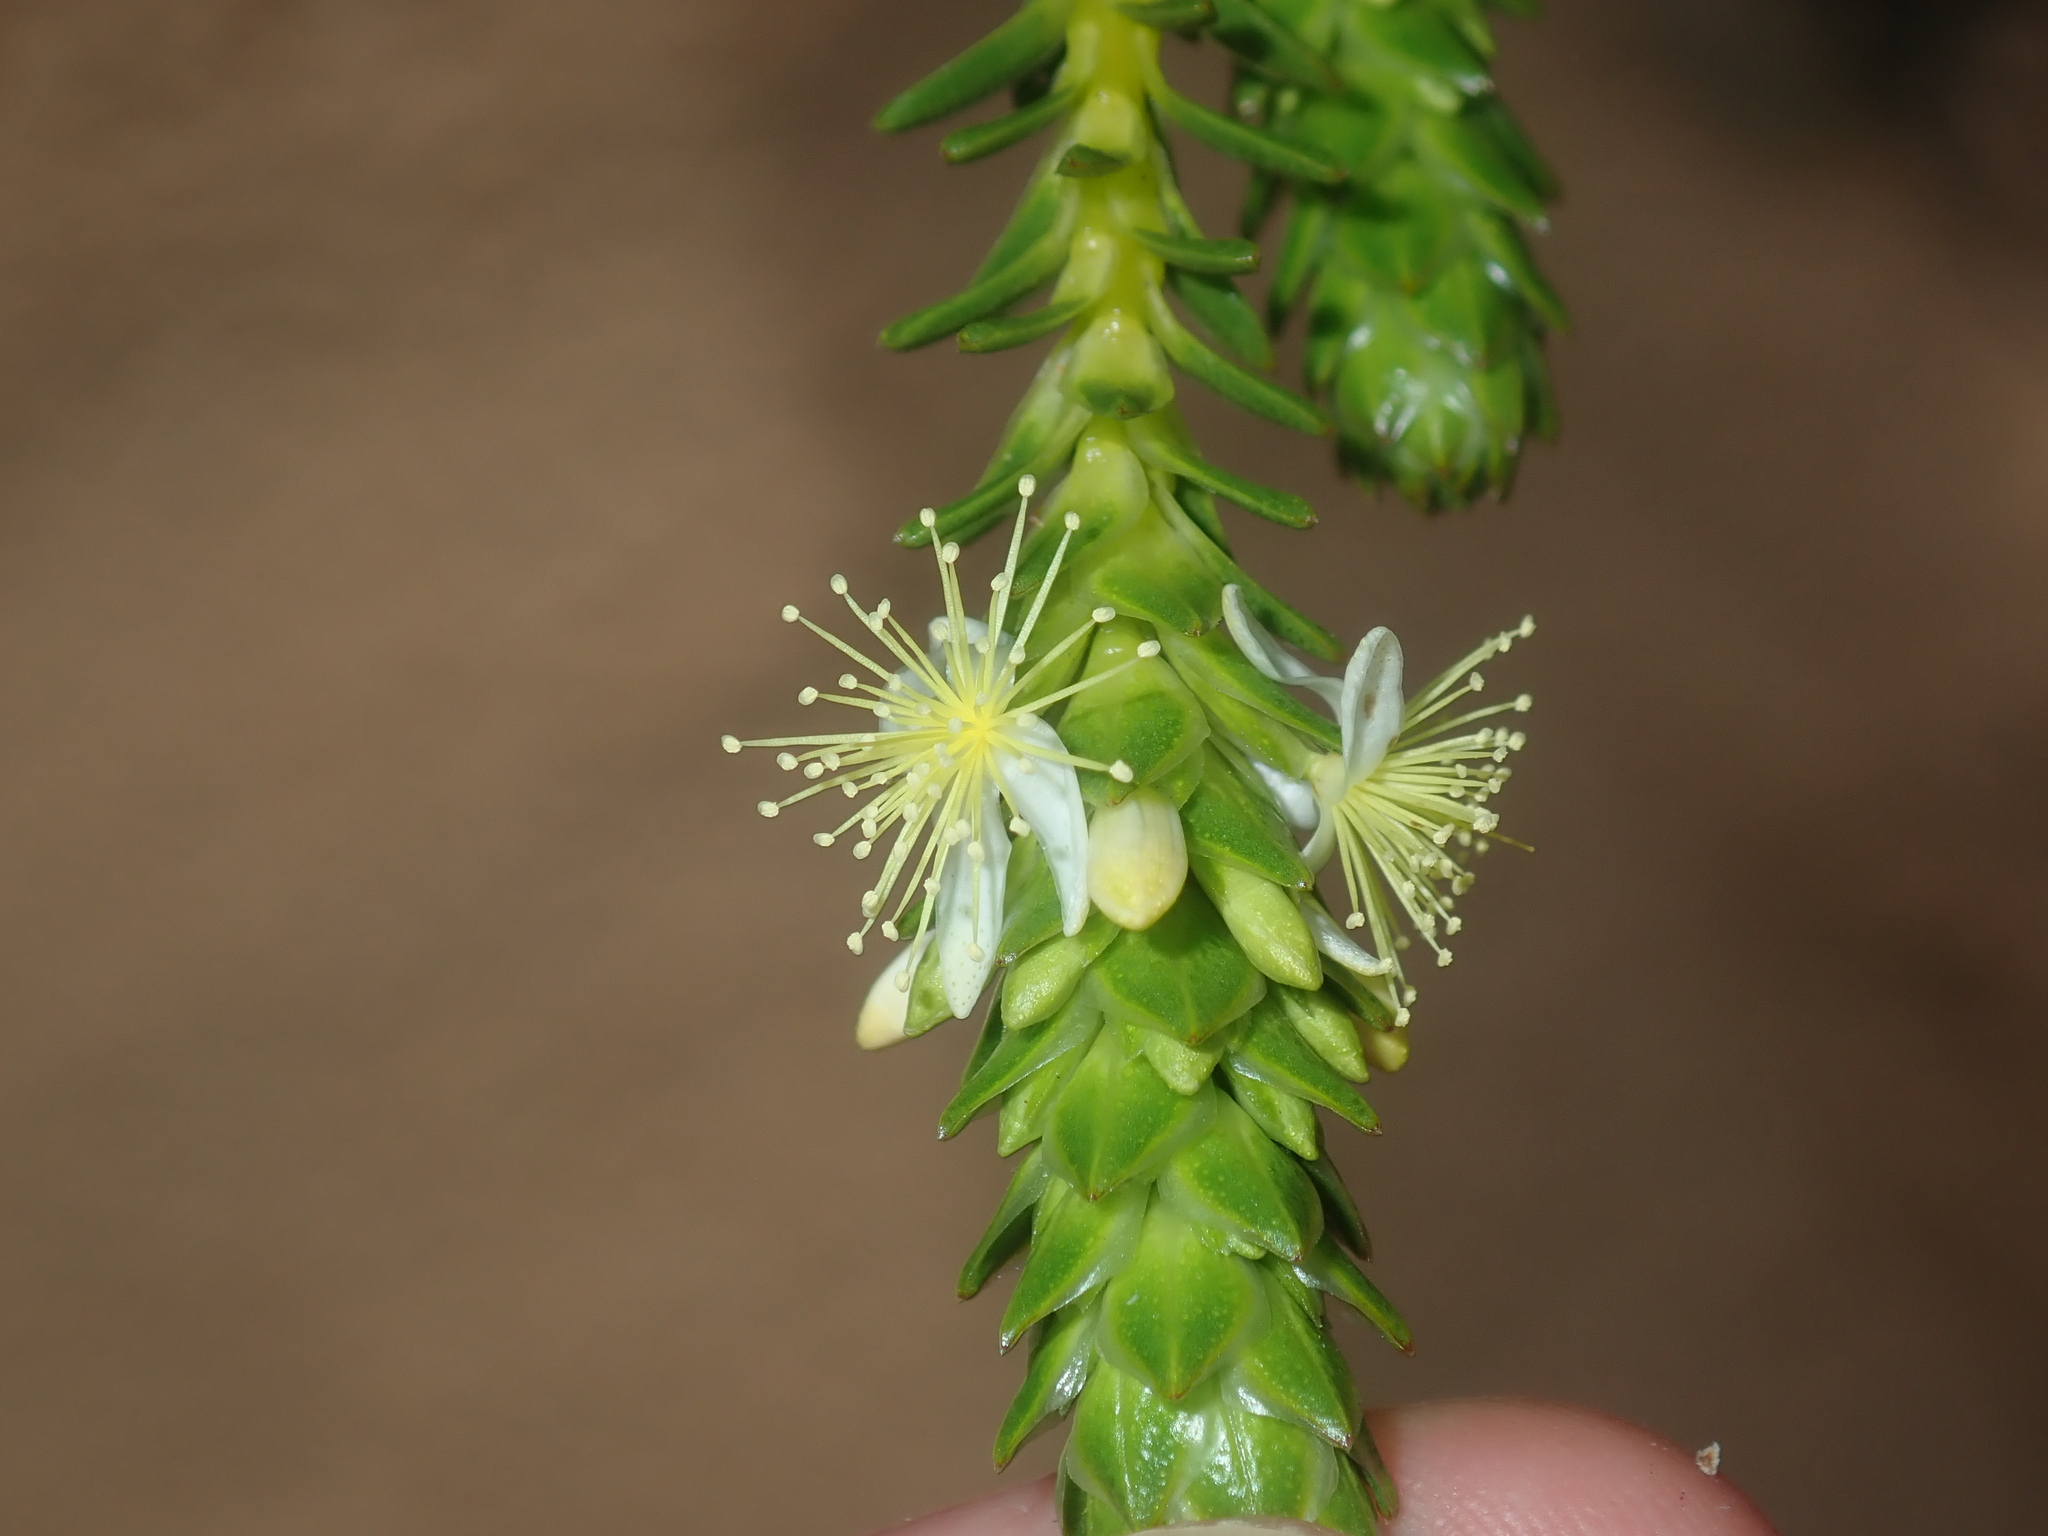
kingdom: Plantae
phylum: Tracheophyta
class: Magnoliopsida
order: Myrtales
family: Myrtaceae
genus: Calytrix
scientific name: Calytrix pimeleoides
